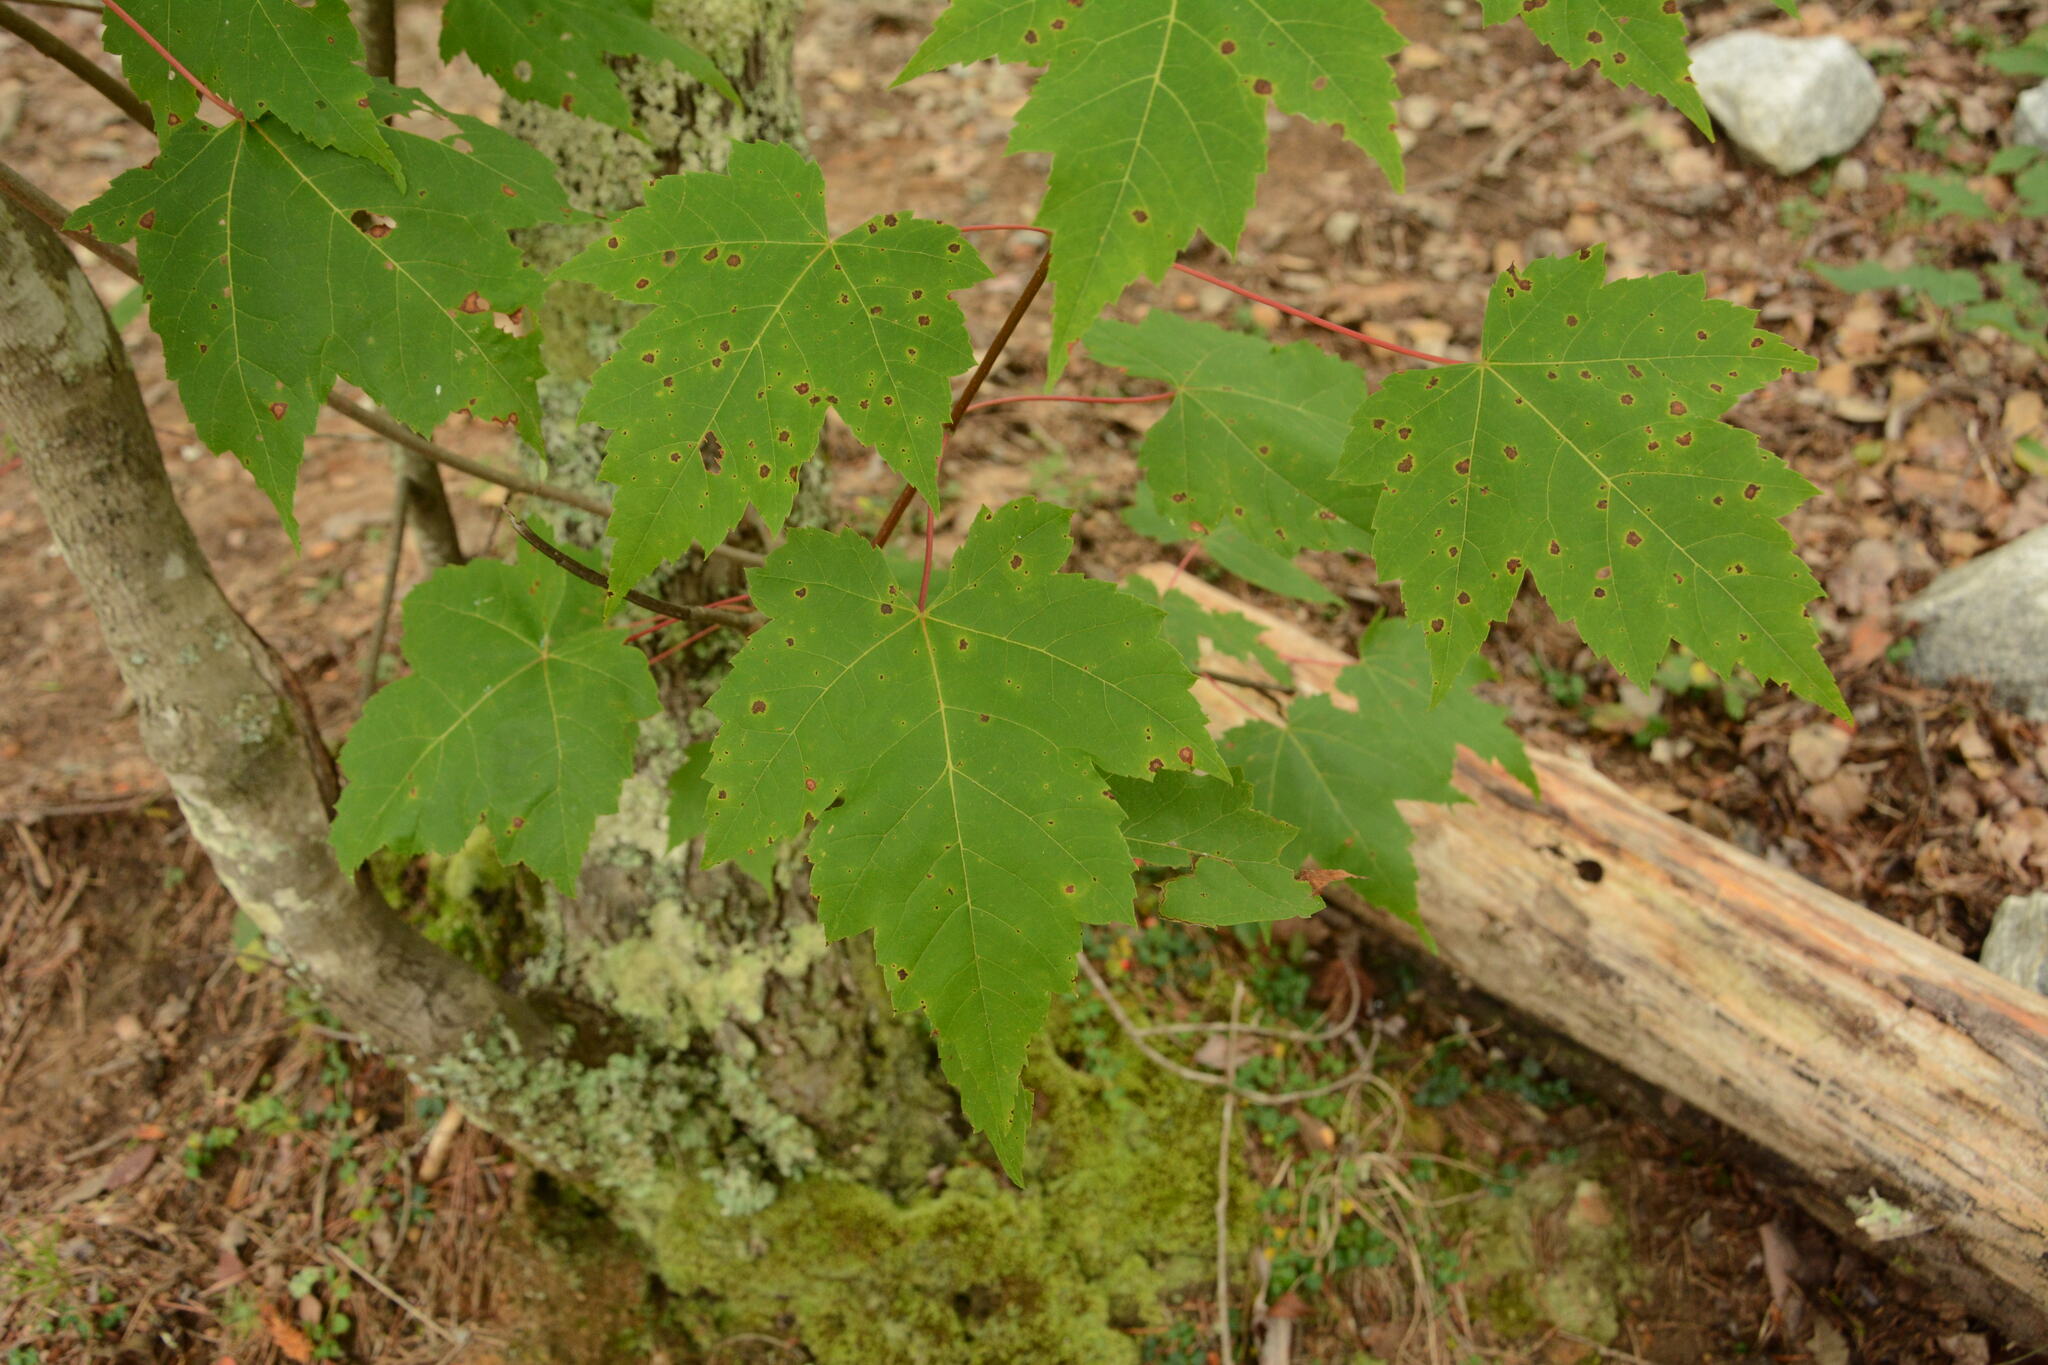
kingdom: Plantae
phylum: Tracheophyta
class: Magnoliopsida
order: Sapindales
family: Sapindaceae
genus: Acer
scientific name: Acer rubrum
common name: Red maple
